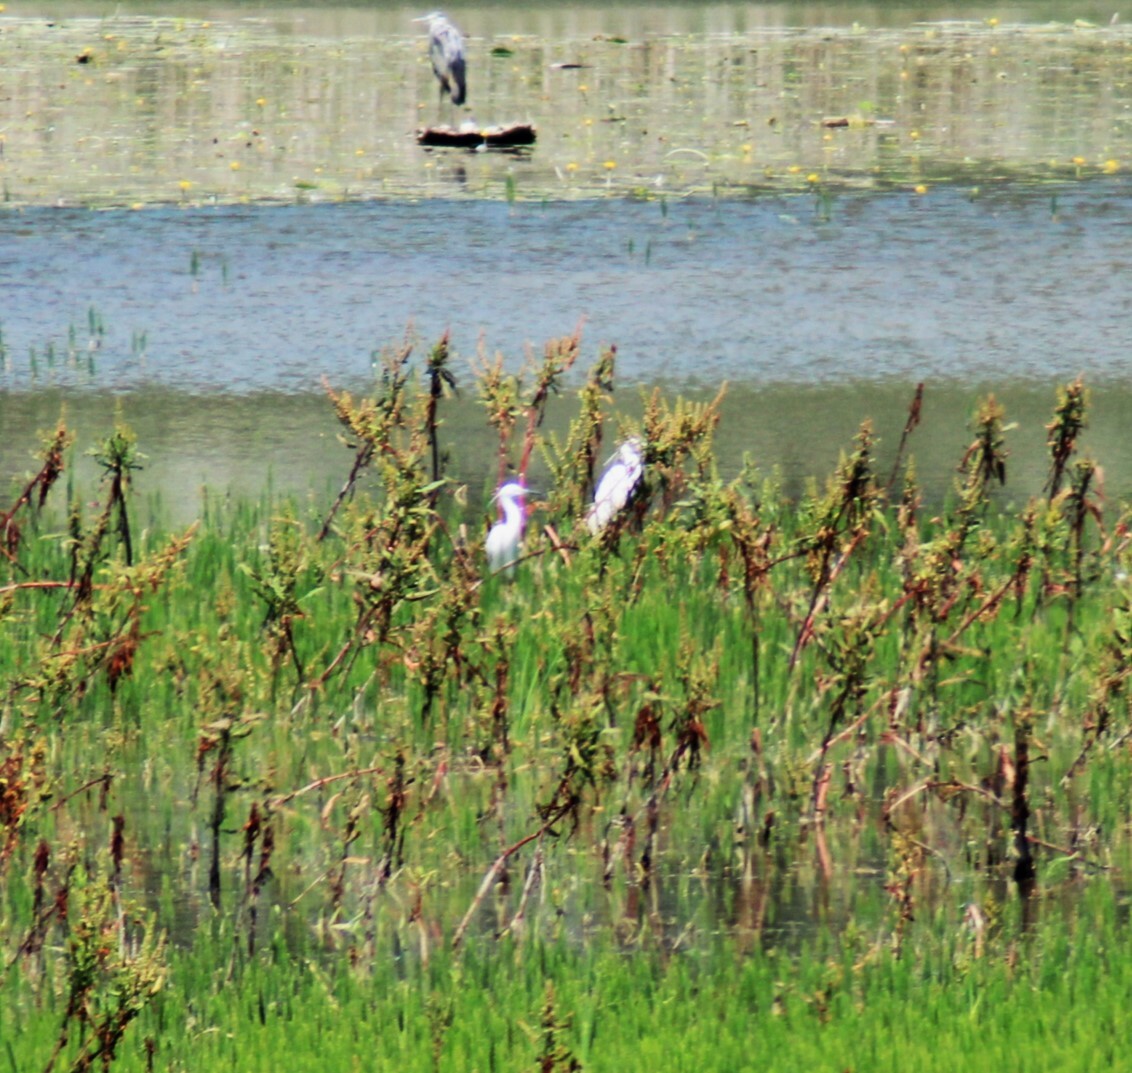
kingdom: Animalia
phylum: Chordata
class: Aves
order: Pelecaniformes
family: Ardeidae
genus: Egretta
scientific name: Egretta garzetta
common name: Little egret
